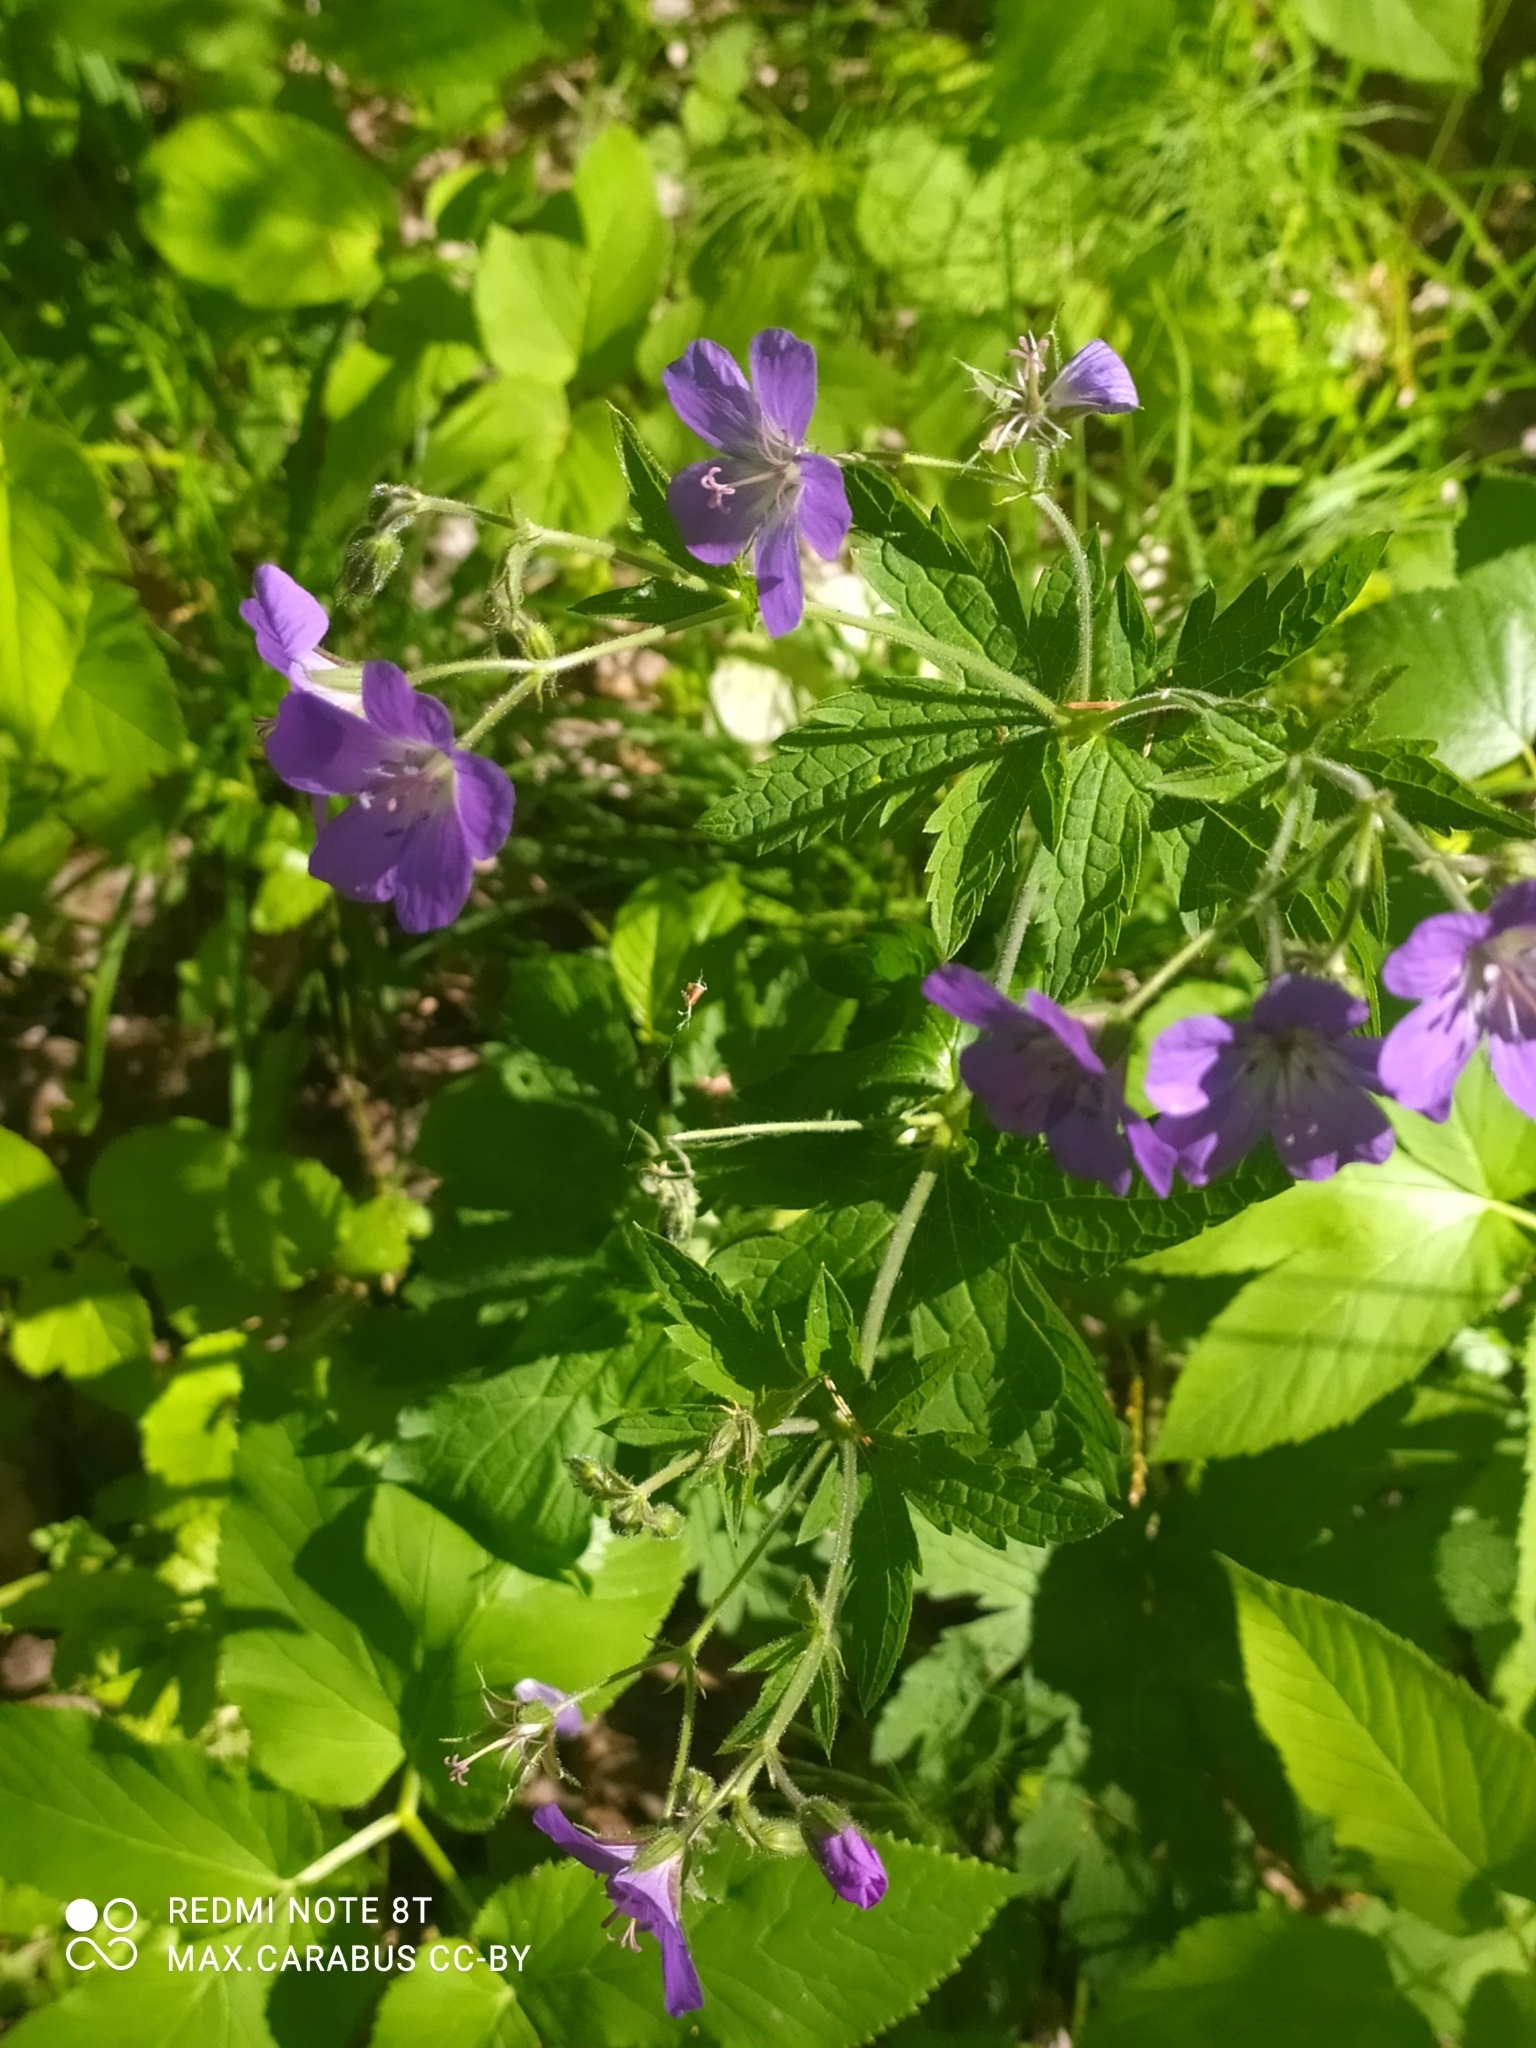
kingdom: Plantae
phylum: Tracheophyta
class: Magnoliopsida
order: Geraniales
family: Geraniaceae
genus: Geranium
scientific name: Geranium sylvaticum
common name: Wood crane's-bill
